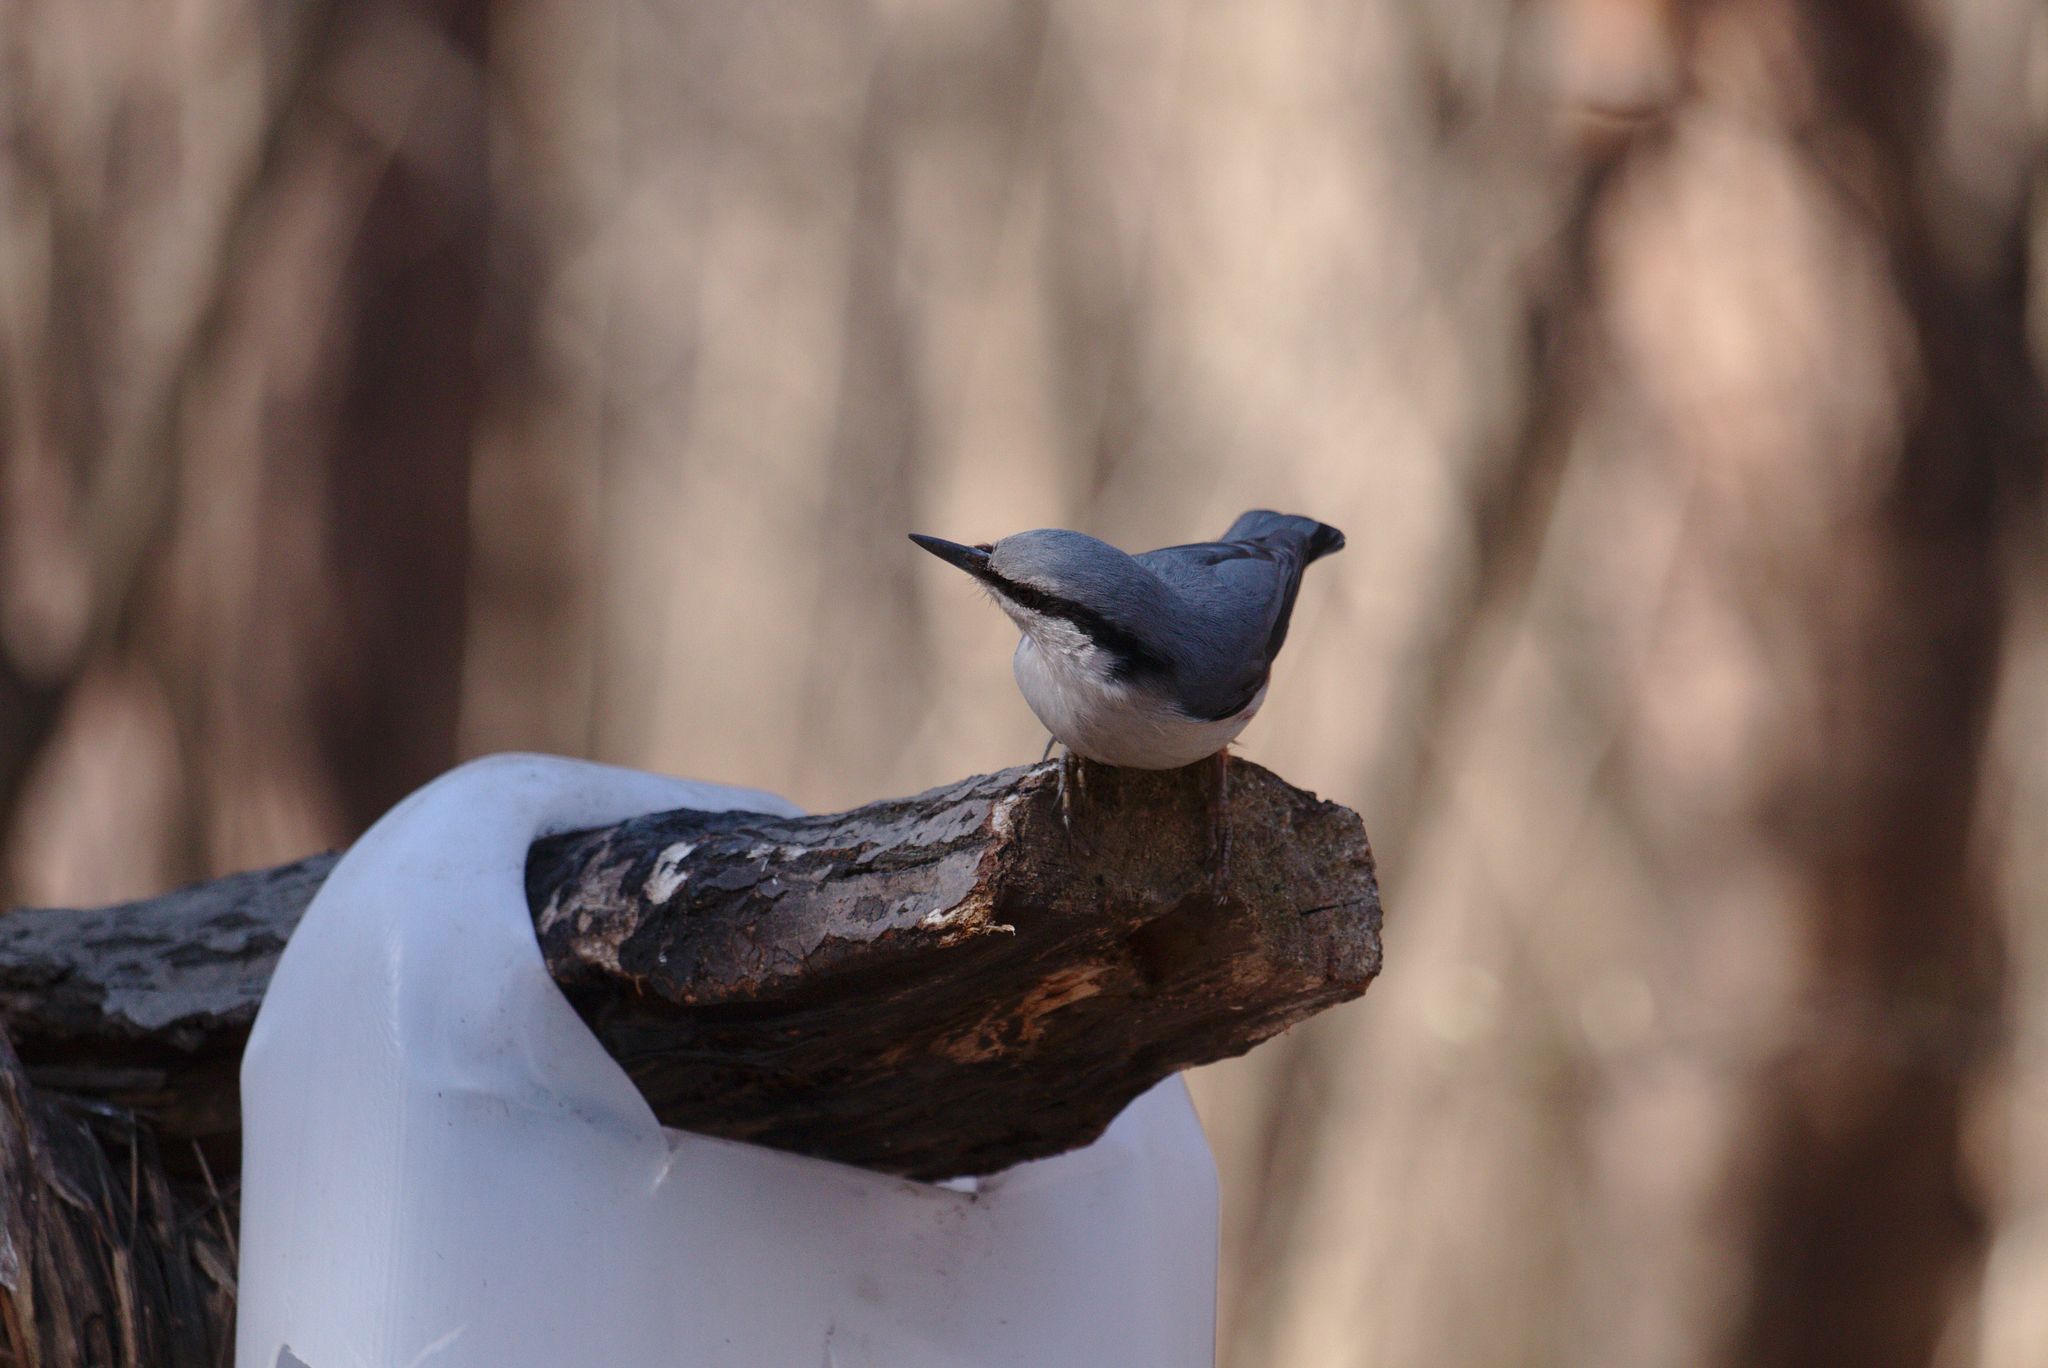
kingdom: Animalia
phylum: Chordata
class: Aves
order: Passeriformes
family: Sittidae
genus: Sitta
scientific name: Sitta europaea
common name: Eurasian nuthatch
